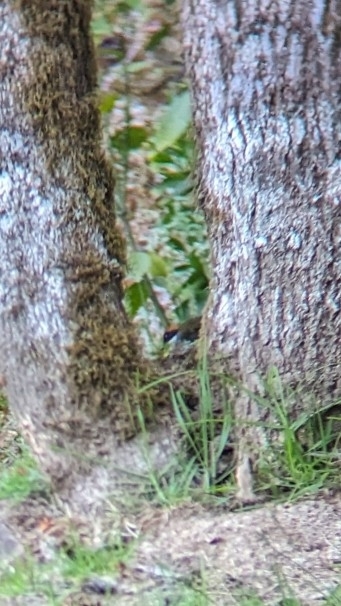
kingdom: Animalia
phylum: Chordata
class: Aves
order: Passeriformes
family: Passerellidae
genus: Arremon
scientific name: Arremon brunneinucha
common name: Chestnut-capped brushfinch
